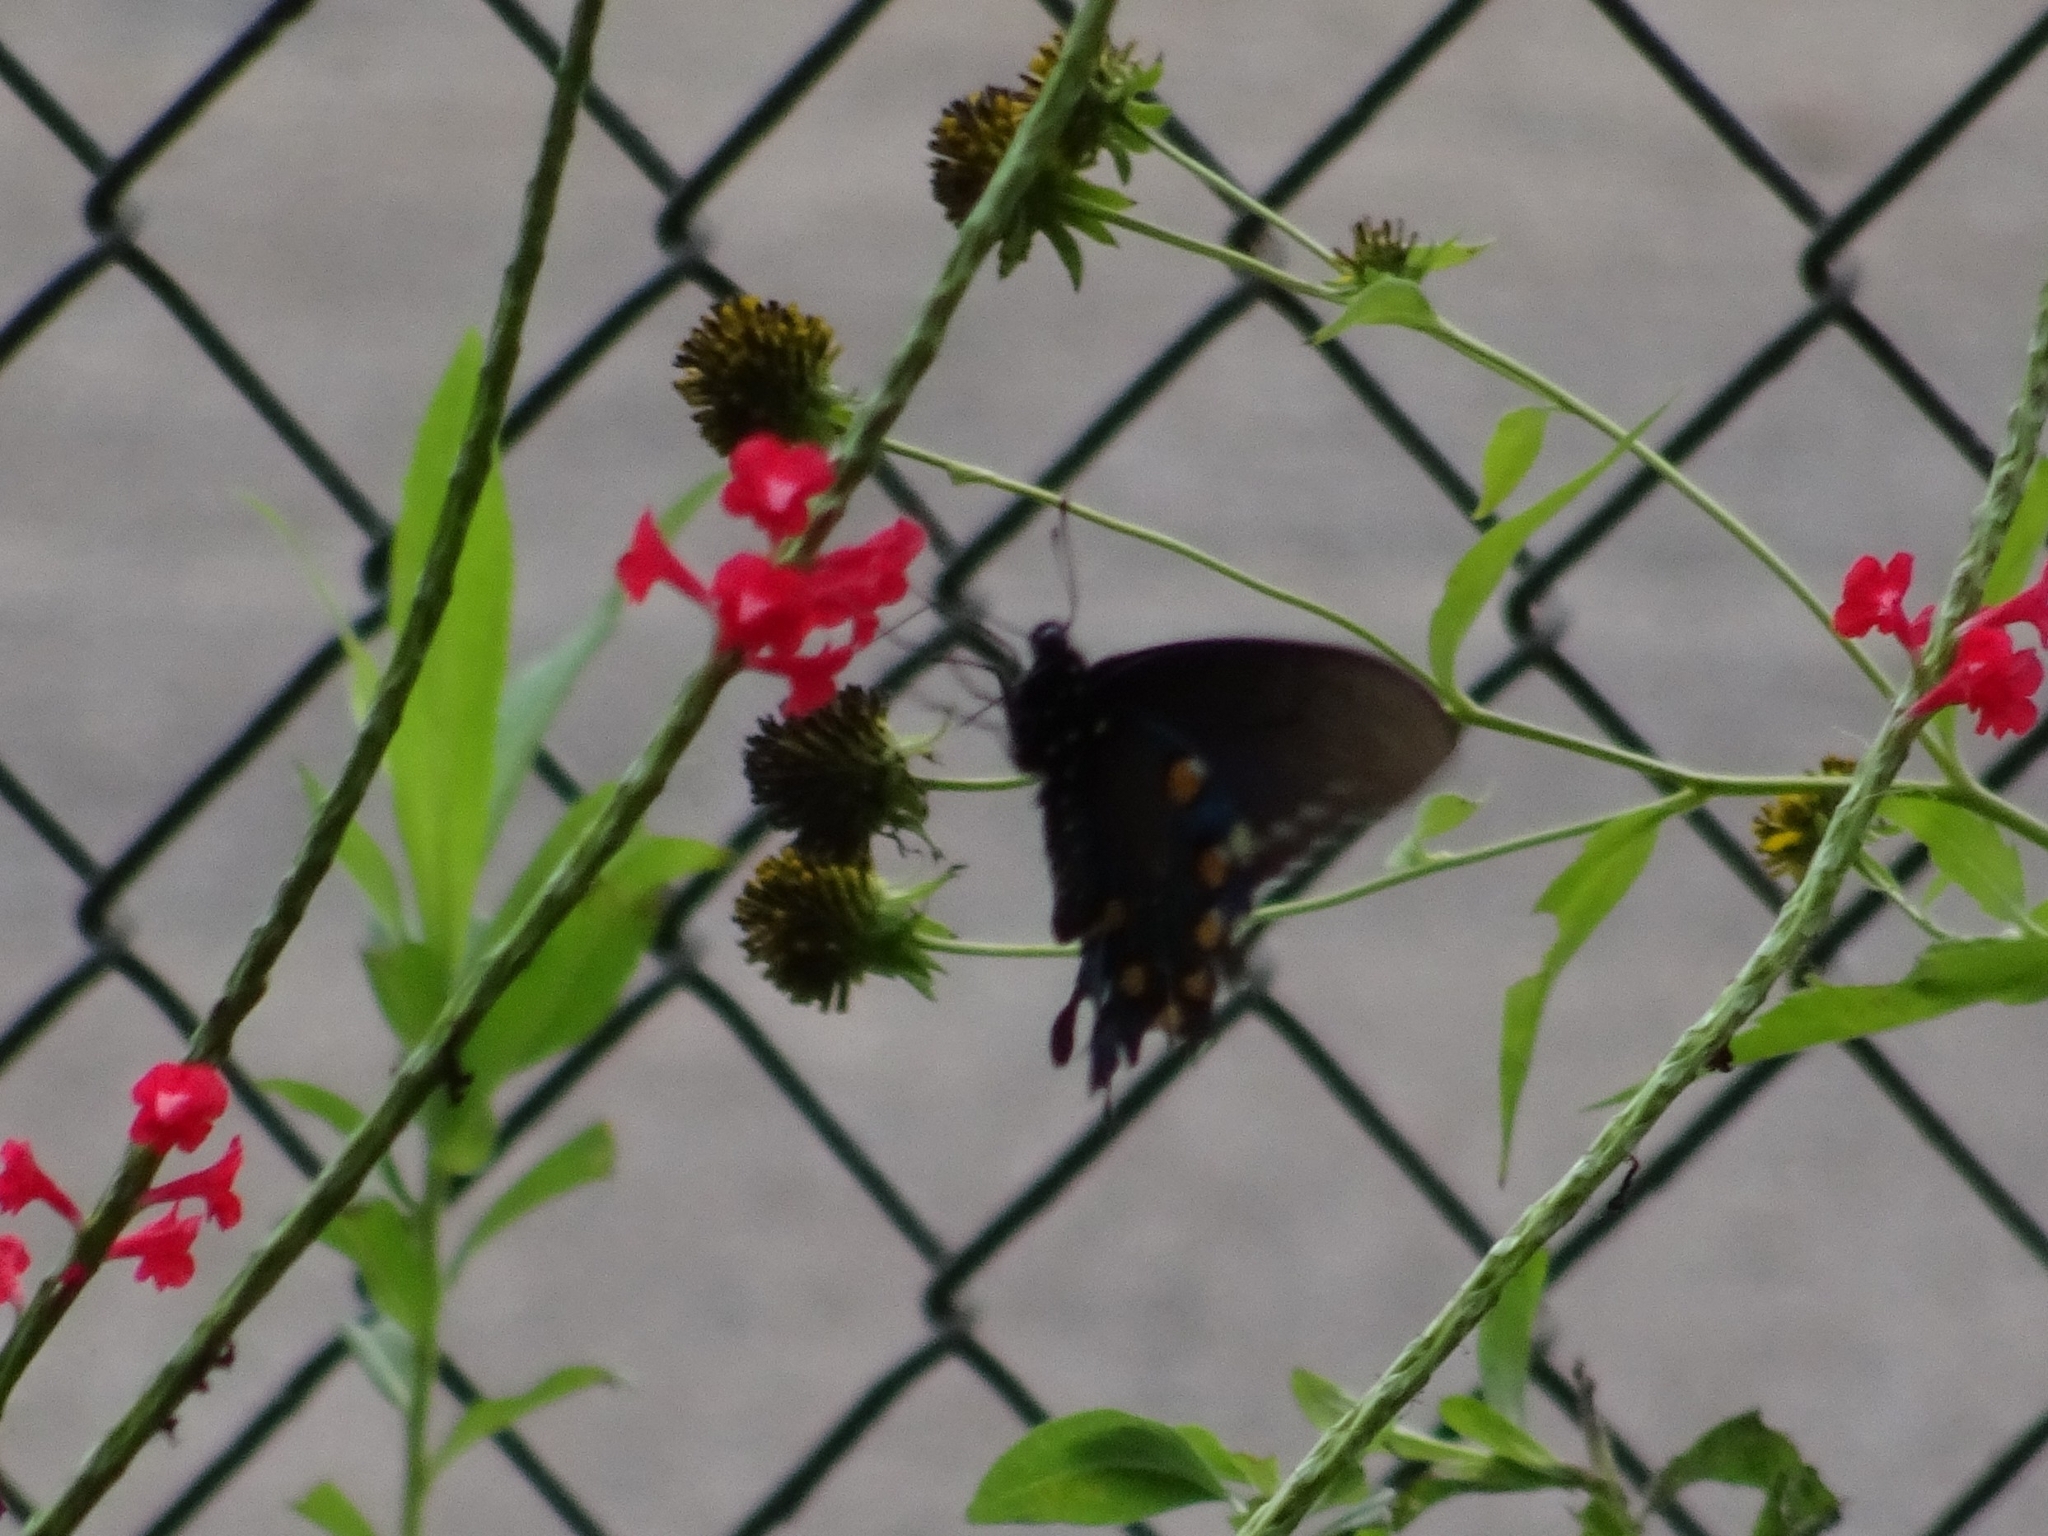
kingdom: Animalia
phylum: Arthropoda
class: Insecta
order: Lepidoptera
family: Papilionidae
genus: Battus
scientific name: Battus philenor
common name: Pipevine swallowtail
